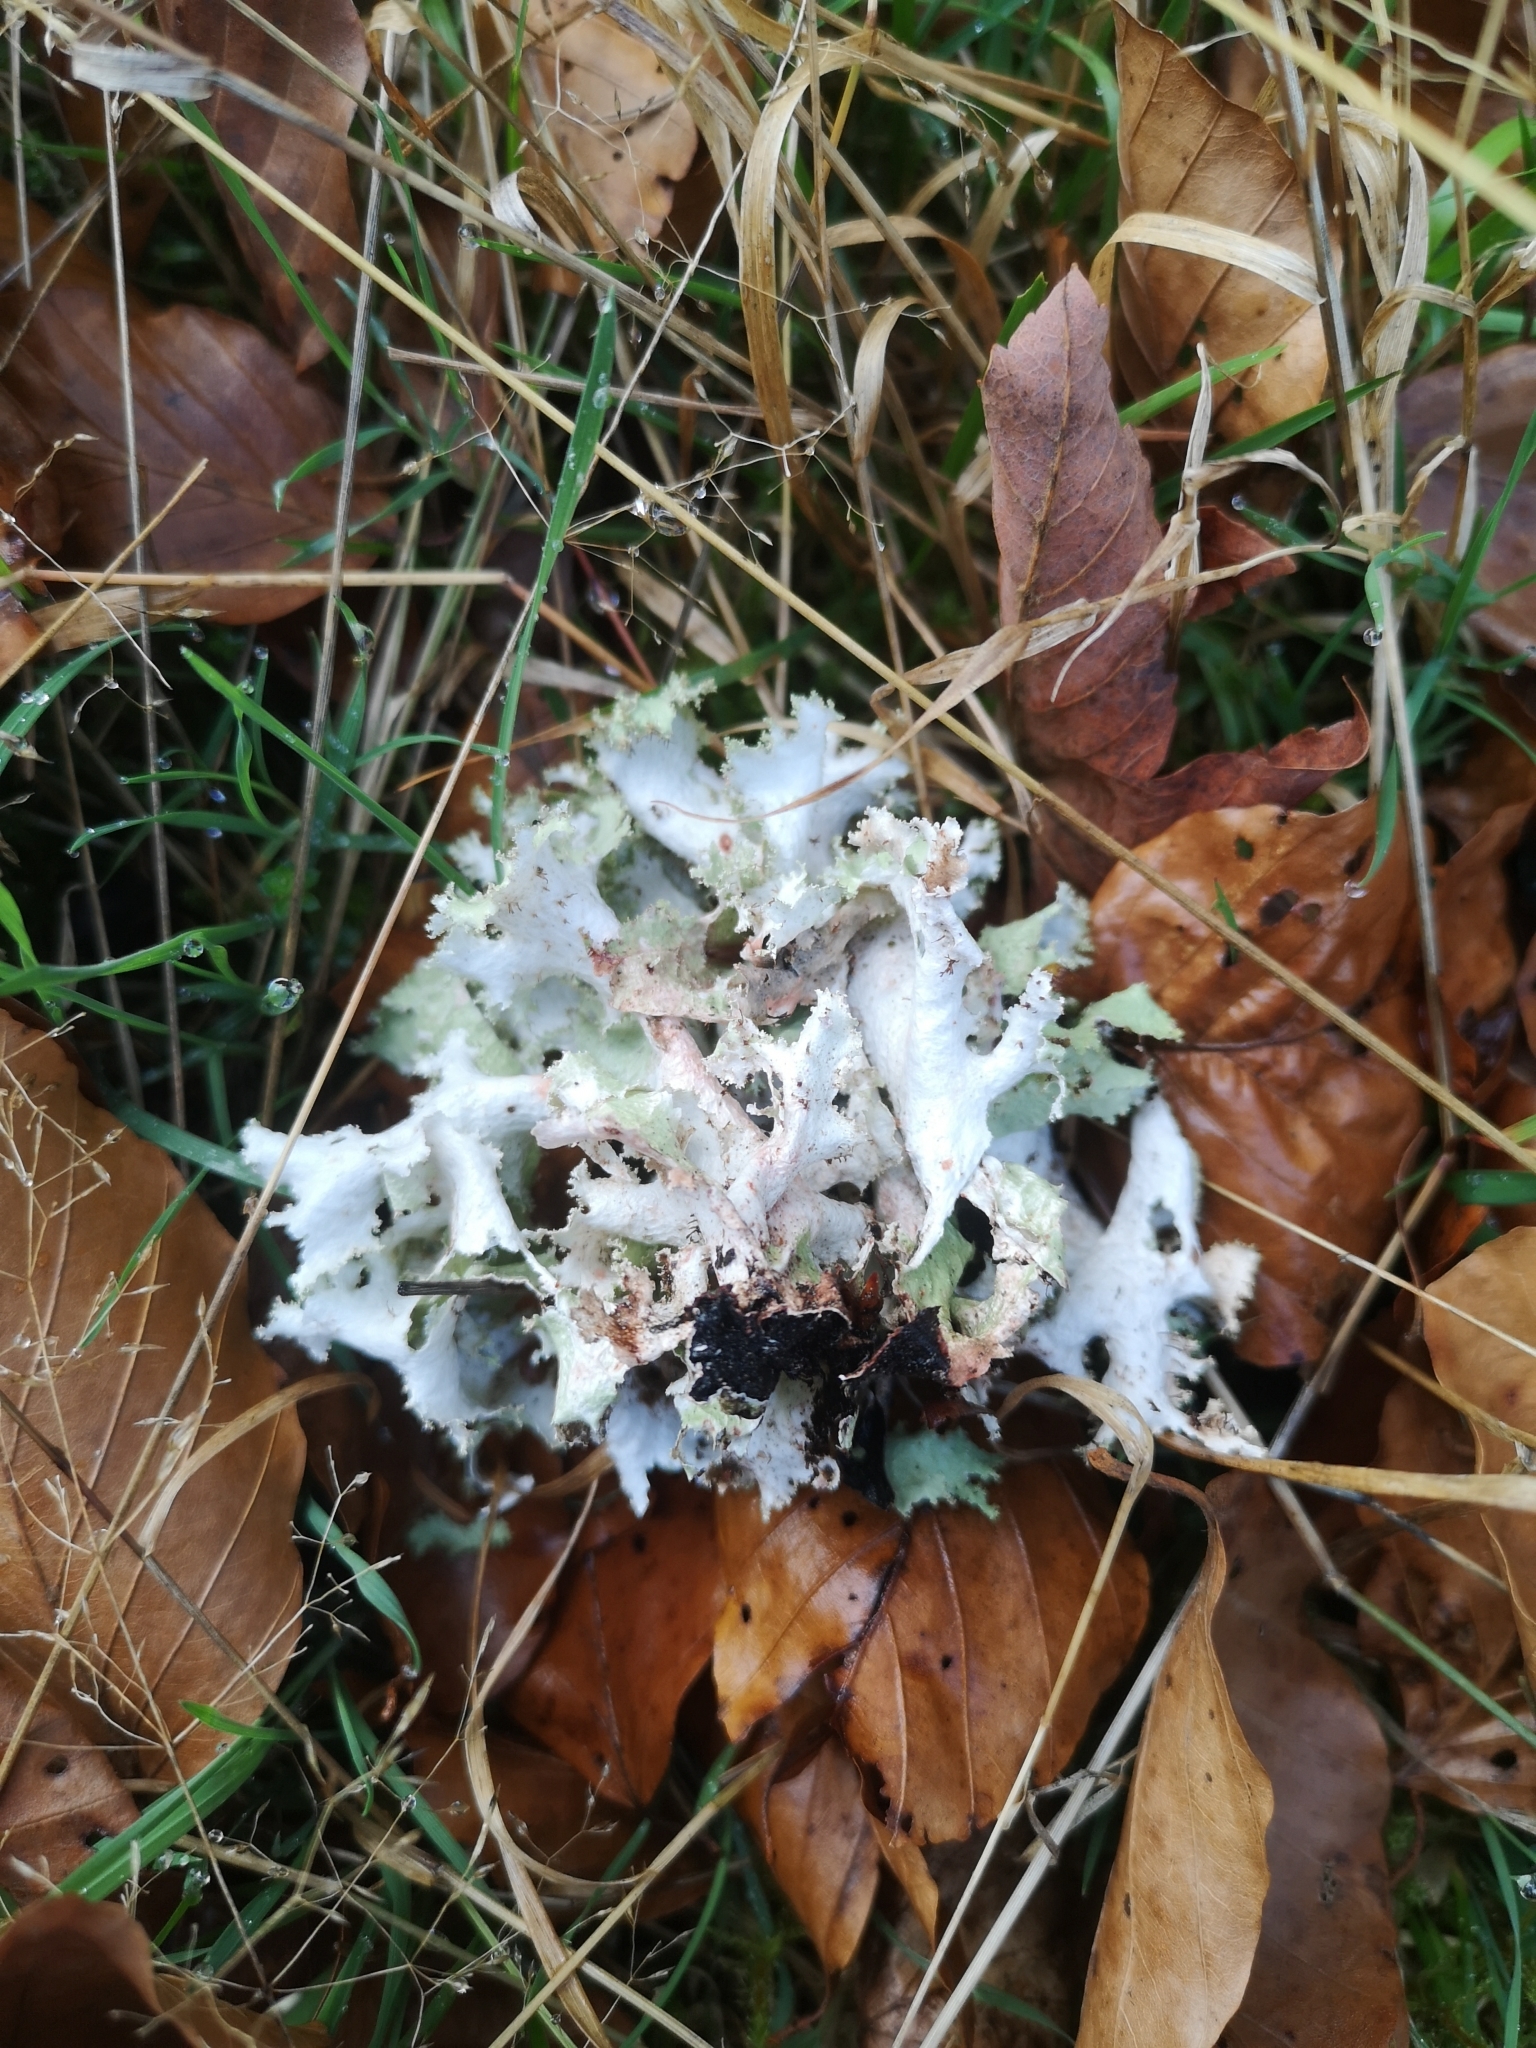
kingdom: Fungi
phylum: Ascomycota
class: Lecanoromycetes
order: Lecanorales
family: Parmeliaceae
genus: Platismatia
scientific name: Platismatia glauca
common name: Varied rag lichen
